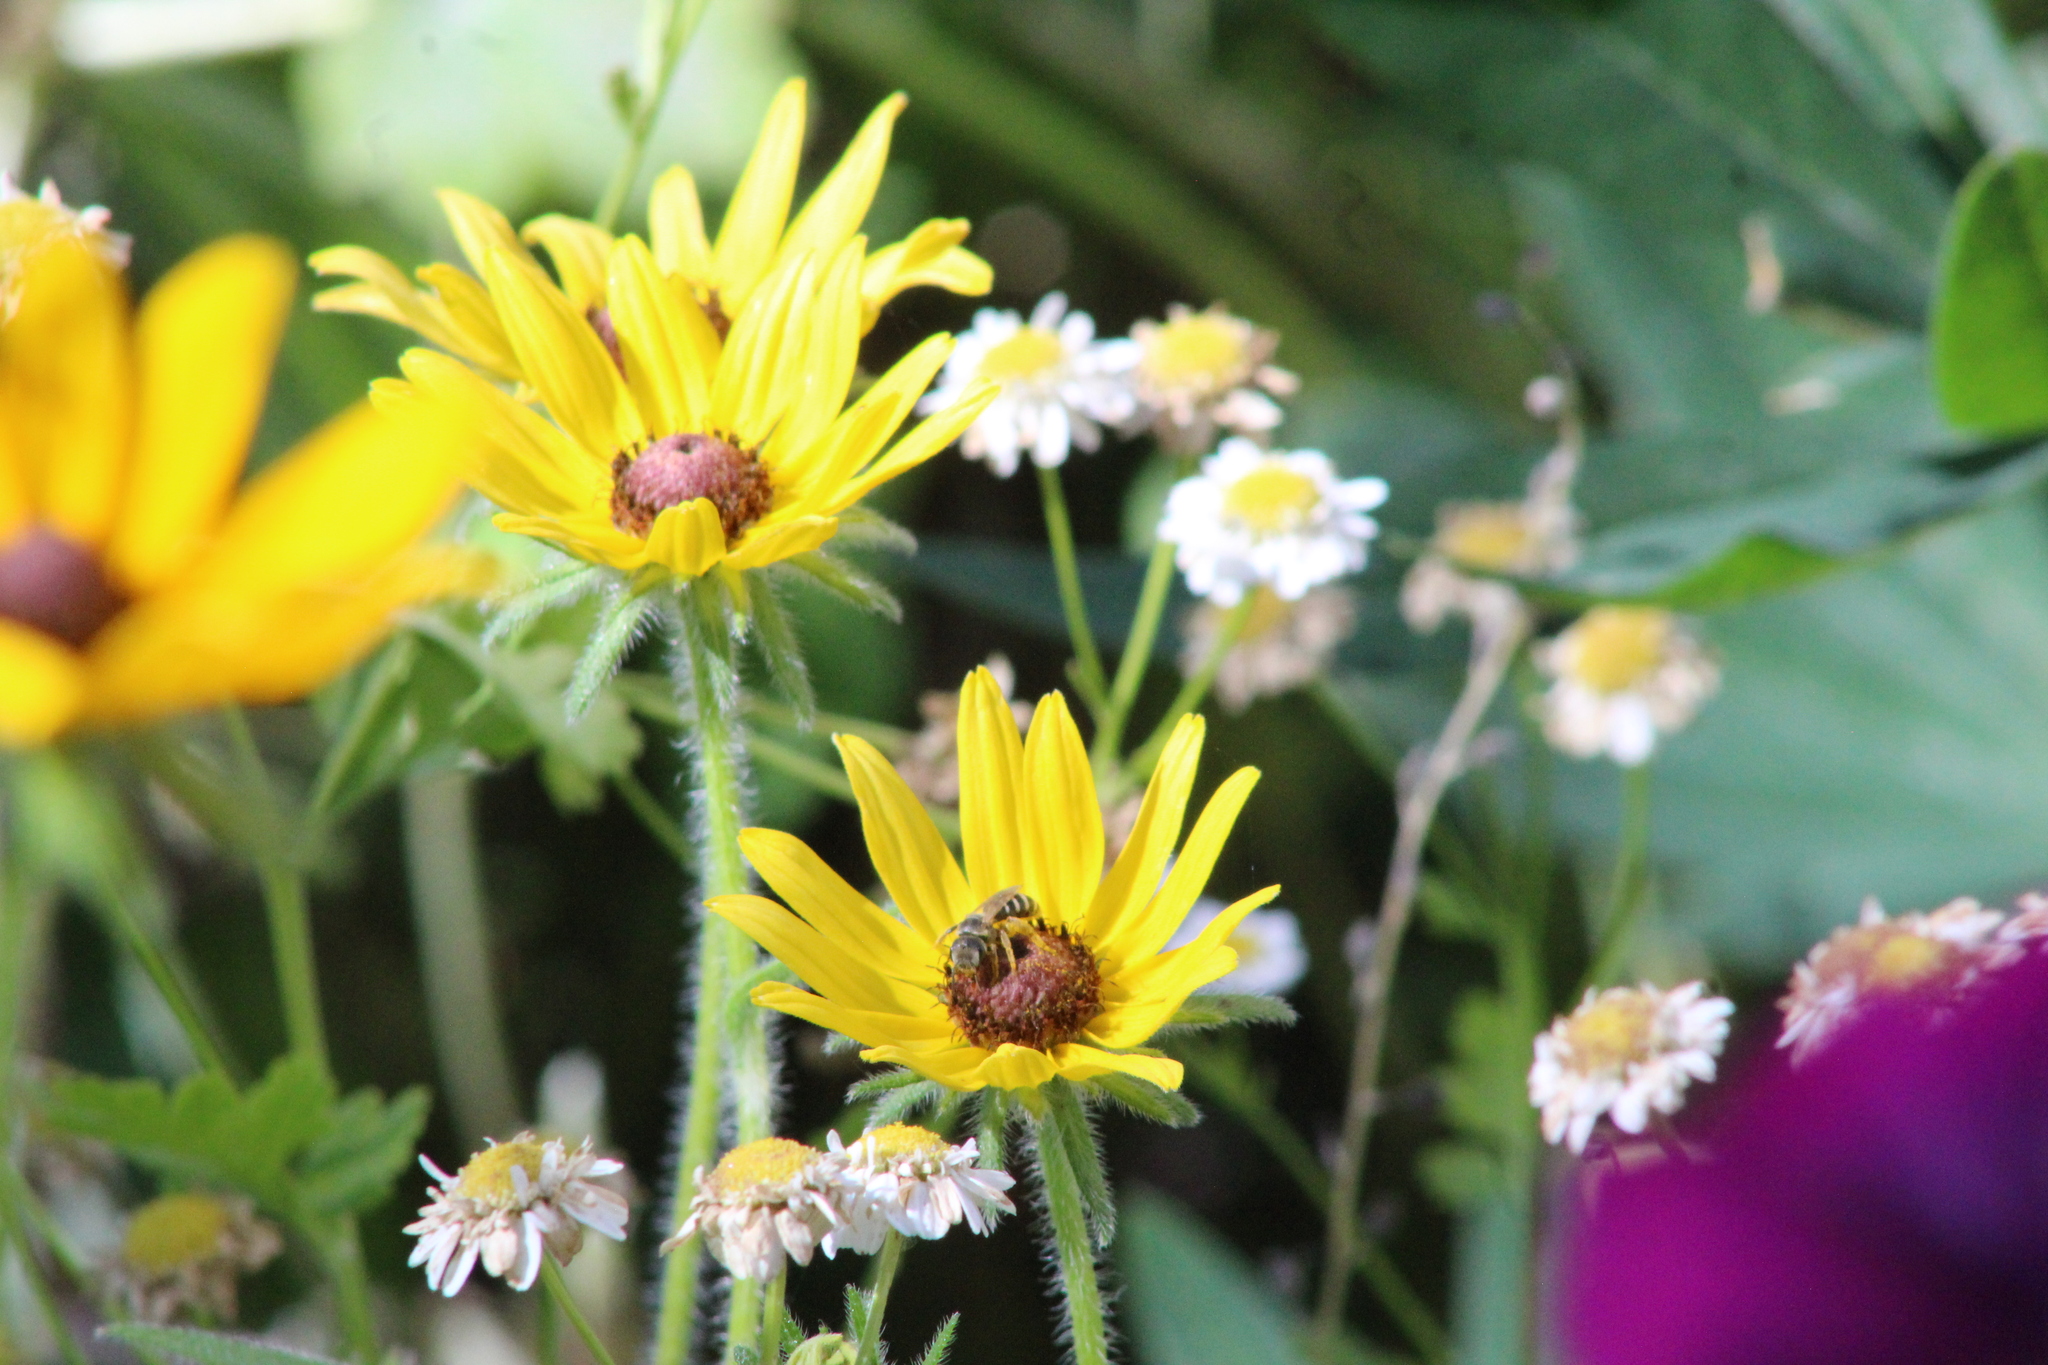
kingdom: Animalia
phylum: Arthropoda
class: Insecta
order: Hymenoptera
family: Halictidae
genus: Halictus
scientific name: Halictus ligatus
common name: Ligated furrow bee
